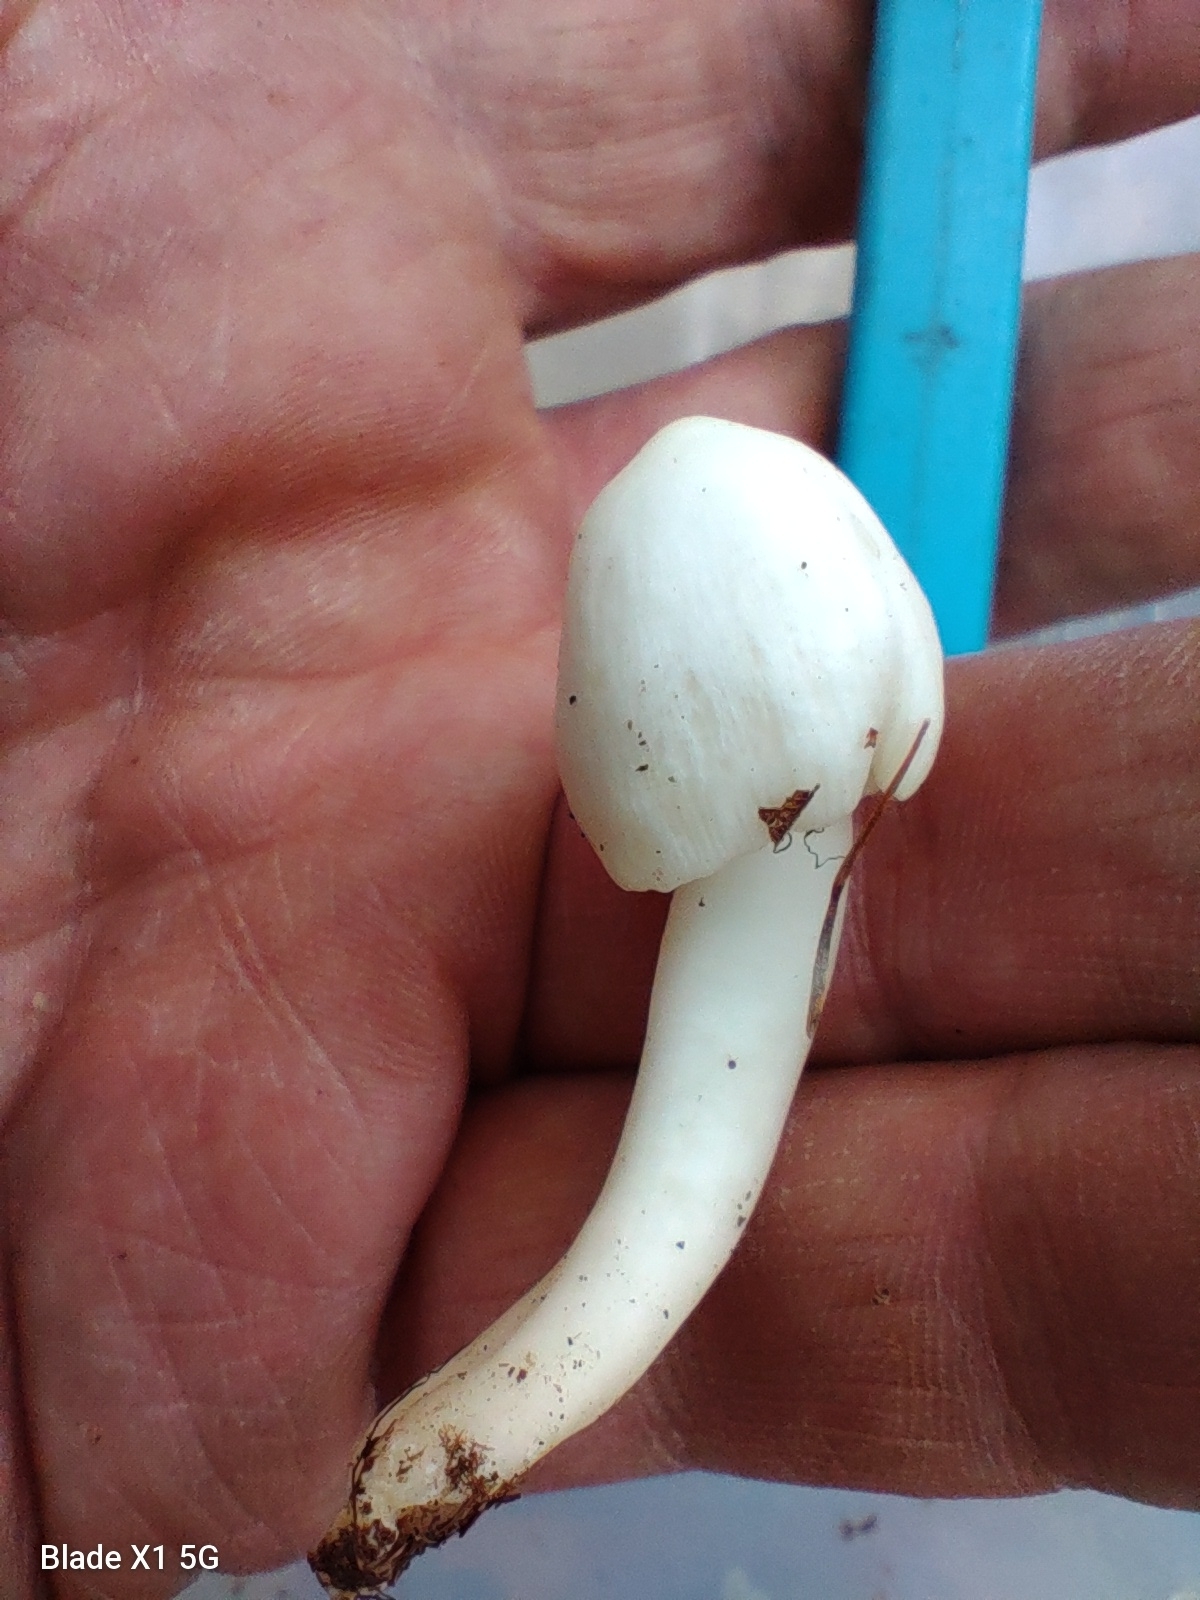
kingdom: Fungi
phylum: Basidiomycota
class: Agaricomycetes
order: Agaricales
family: Hygrophoraceae
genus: Humidicutis
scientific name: Humidicutis pura
